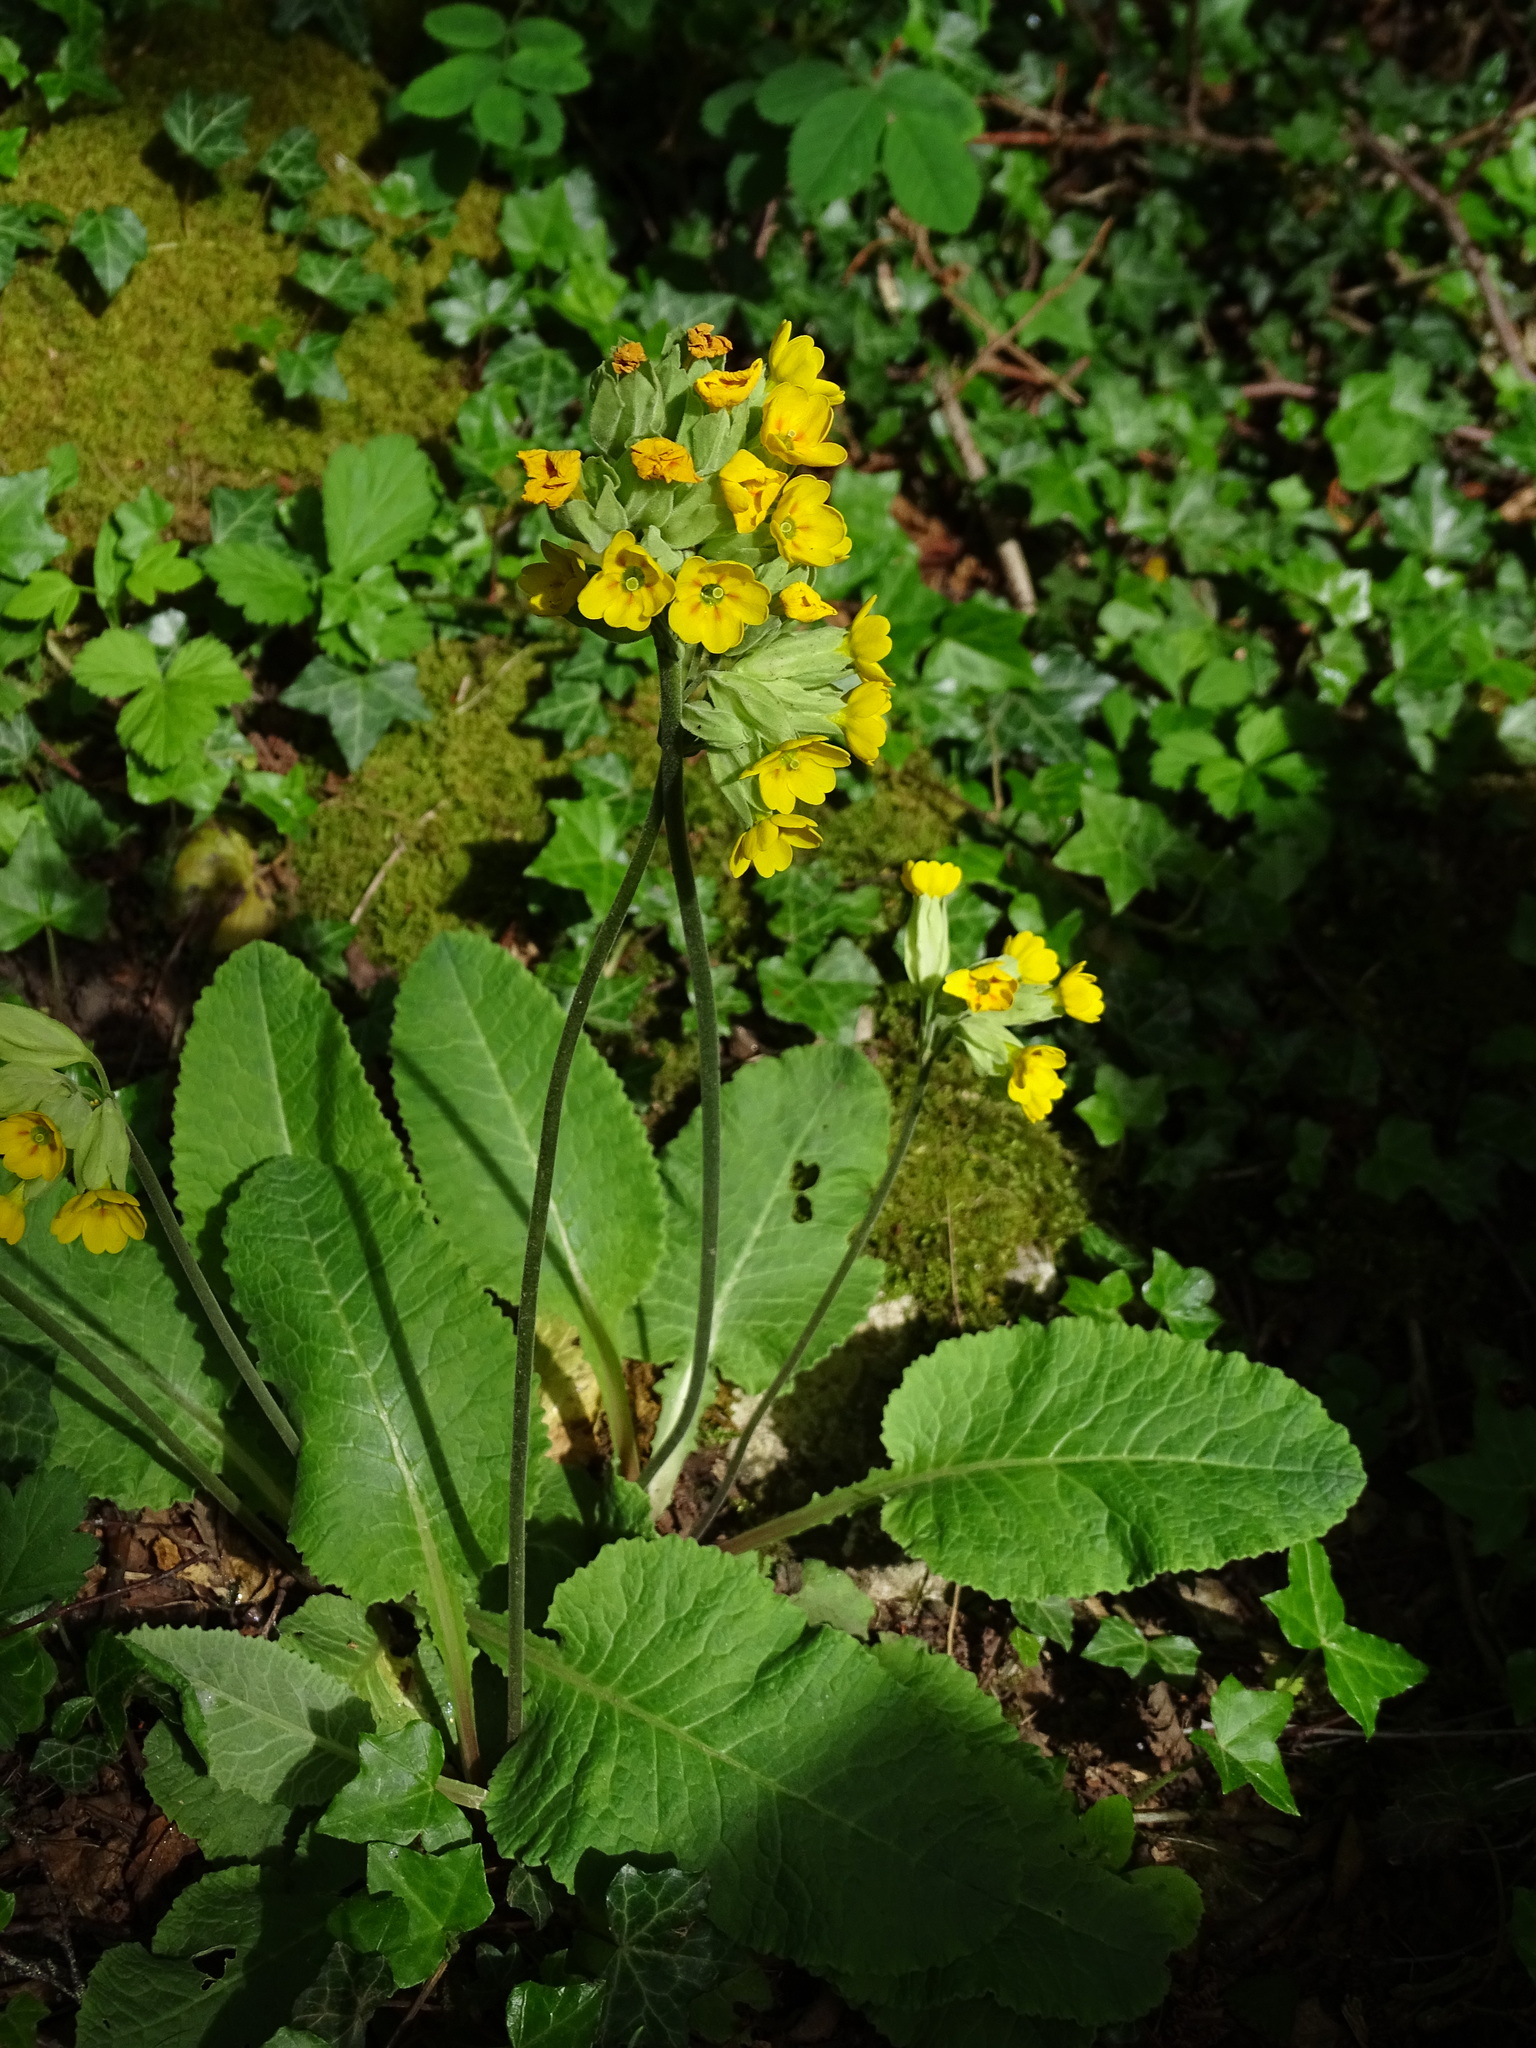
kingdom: Plantae
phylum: Tracheophyta
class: Magnoliopsida
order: Ericales
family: Primulaceae
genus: Primula
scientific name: Primula veris
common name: Cowslip
